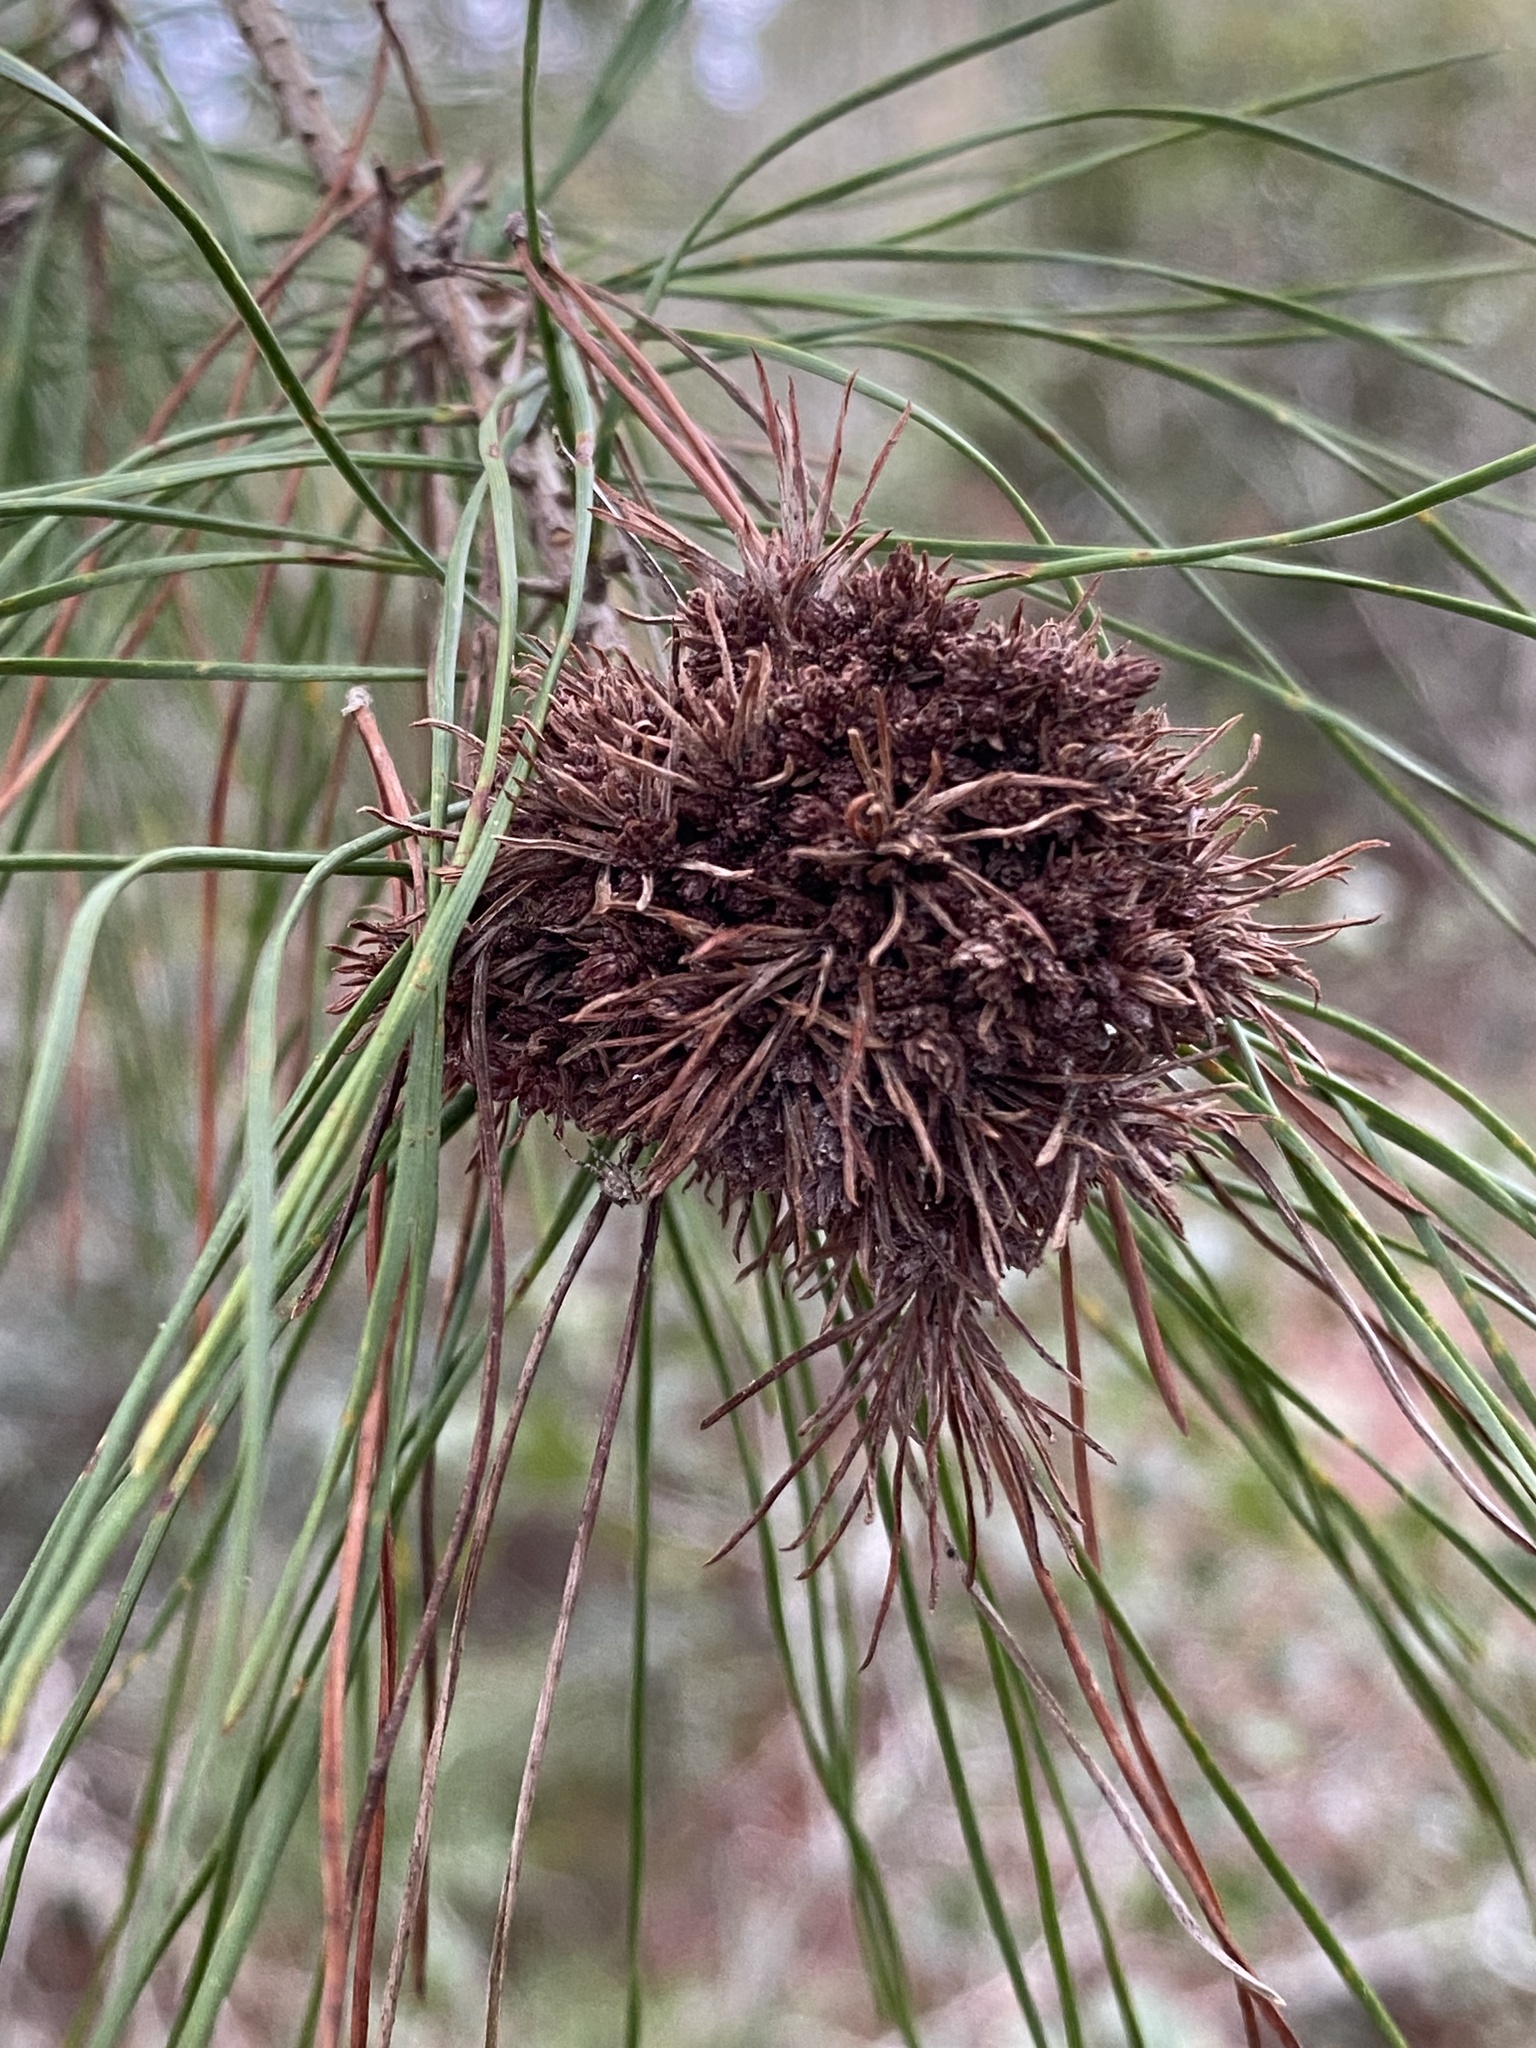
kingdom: Bacteria
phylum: Firmicutes
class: Bacilli
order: Acholeplasmatales
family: Acholeplasmataceae
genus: Phytoplasma
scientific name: Phytoplasma pini
